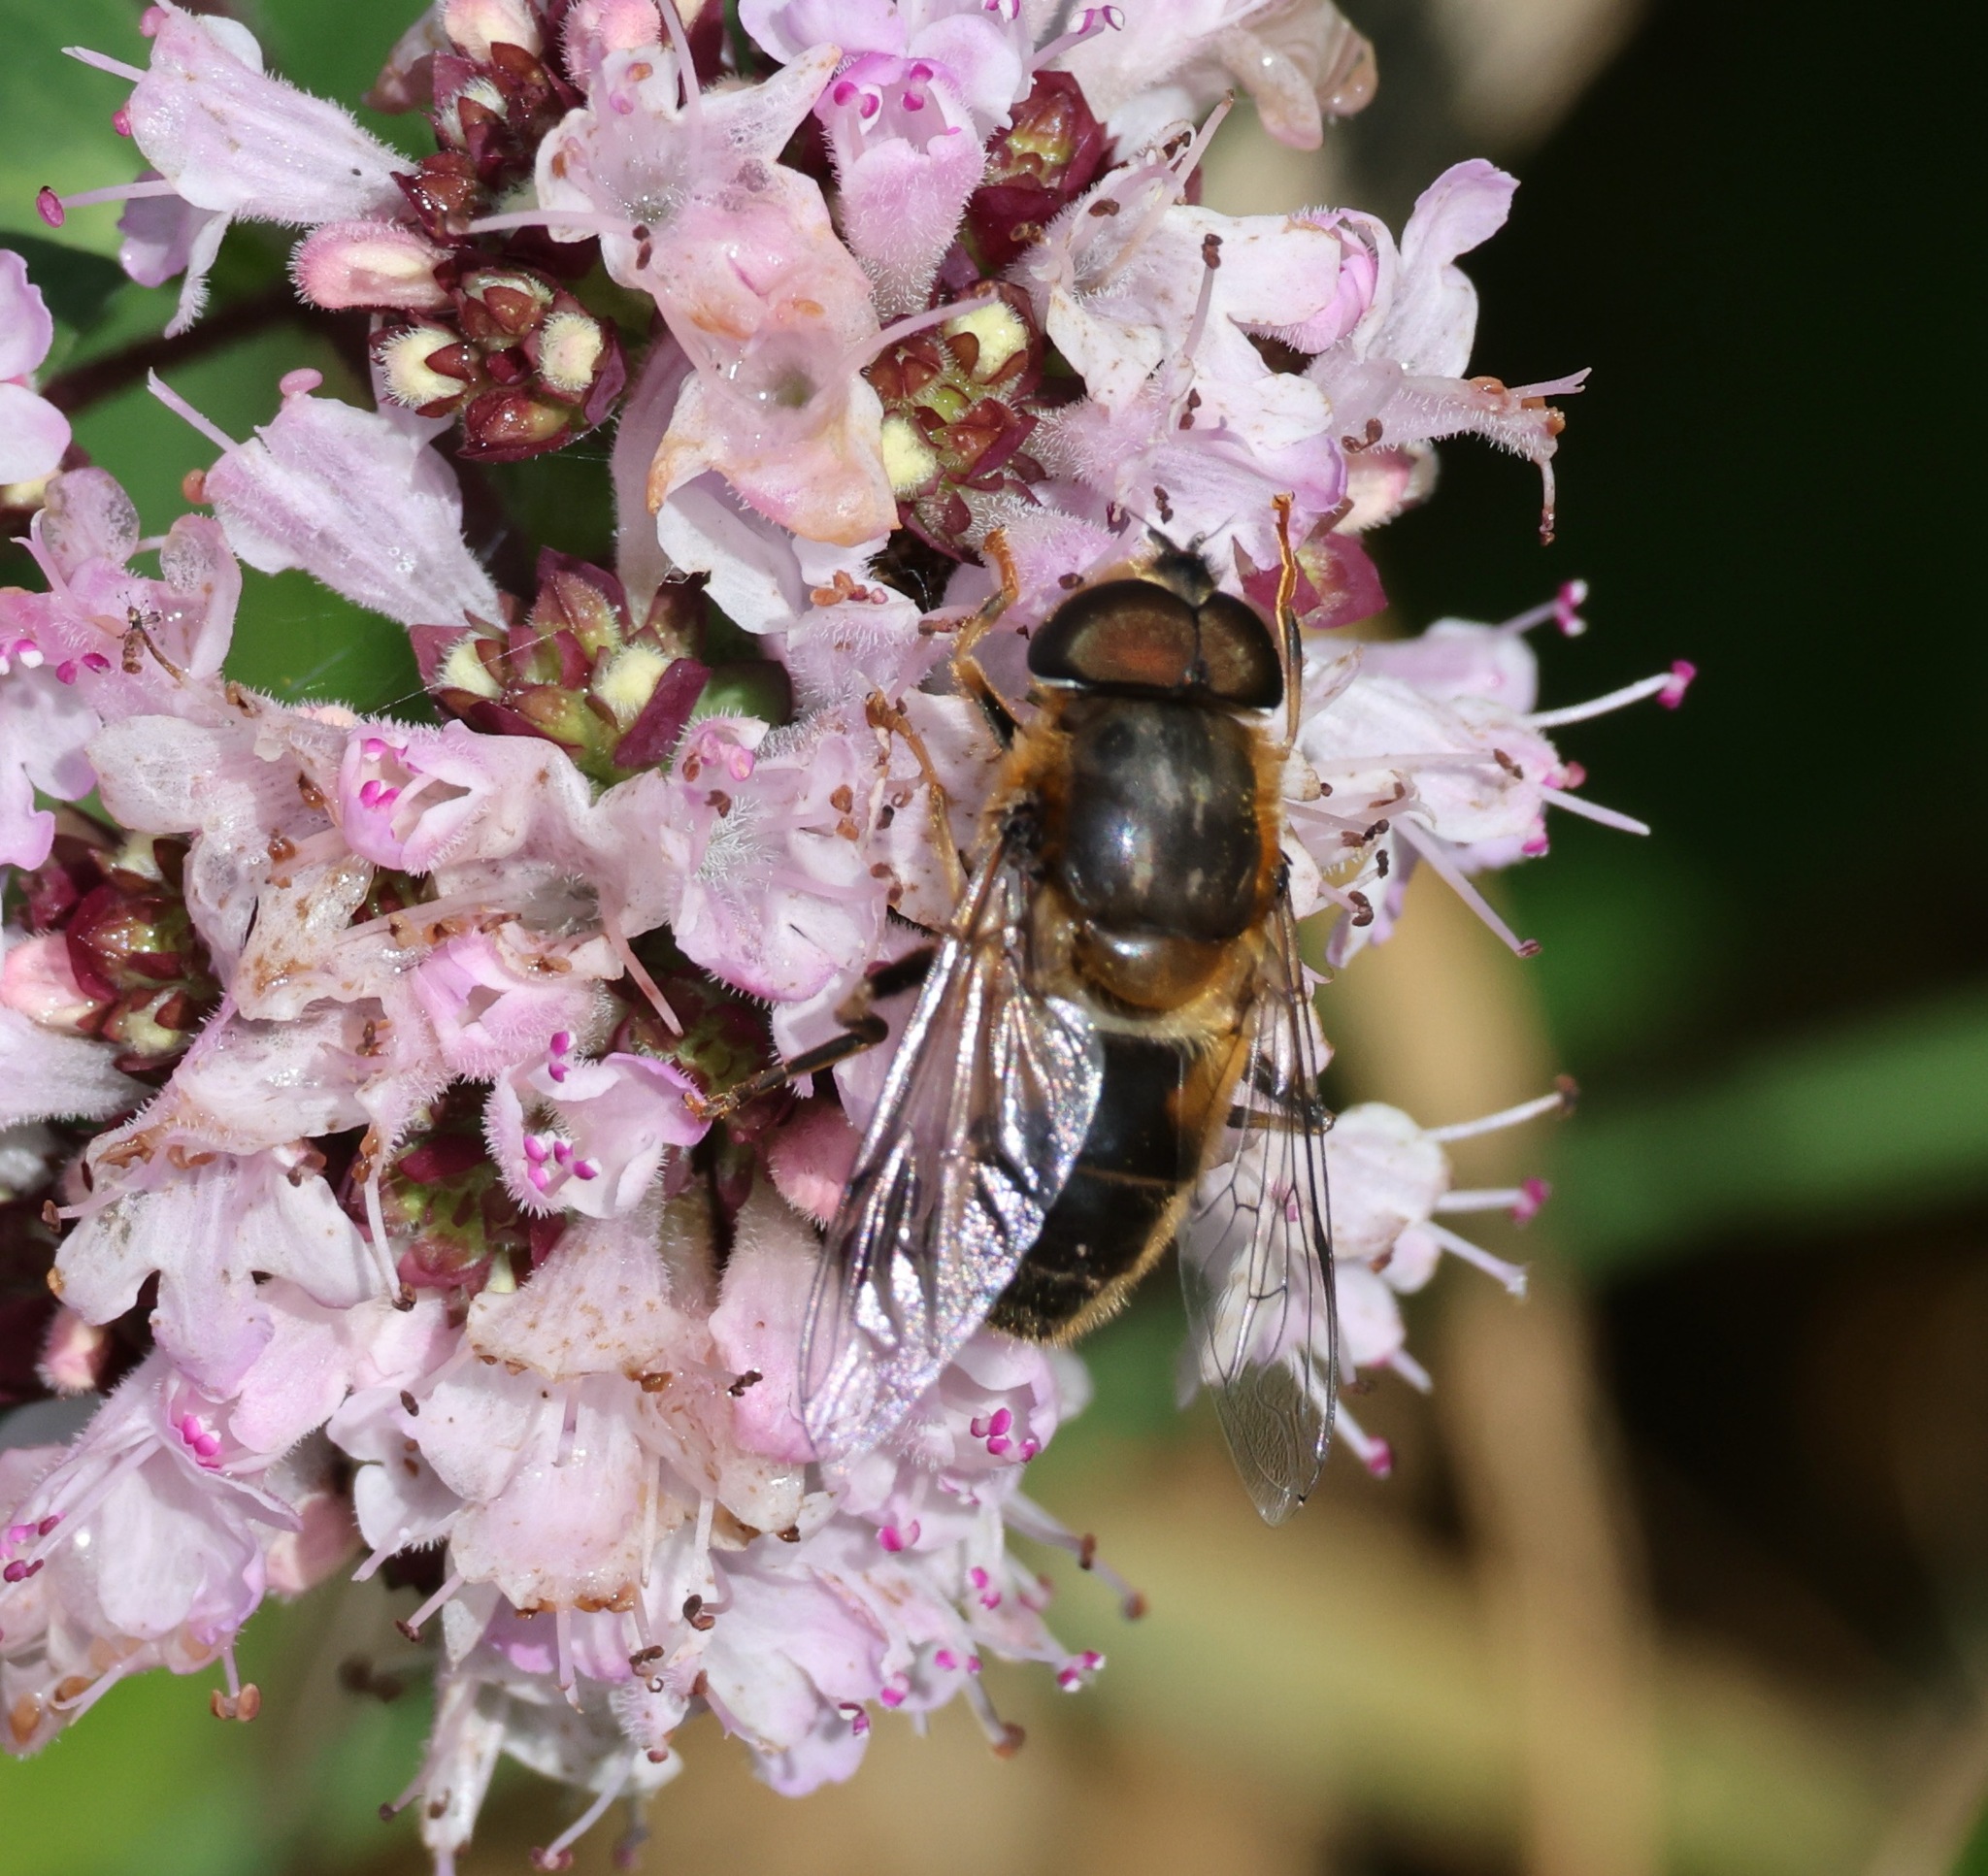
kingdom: Animalia
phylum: Arthropoda
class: Insecta
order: Diptera
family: Syrphidae
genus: Eristalis
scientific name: Eristalis pertinax
